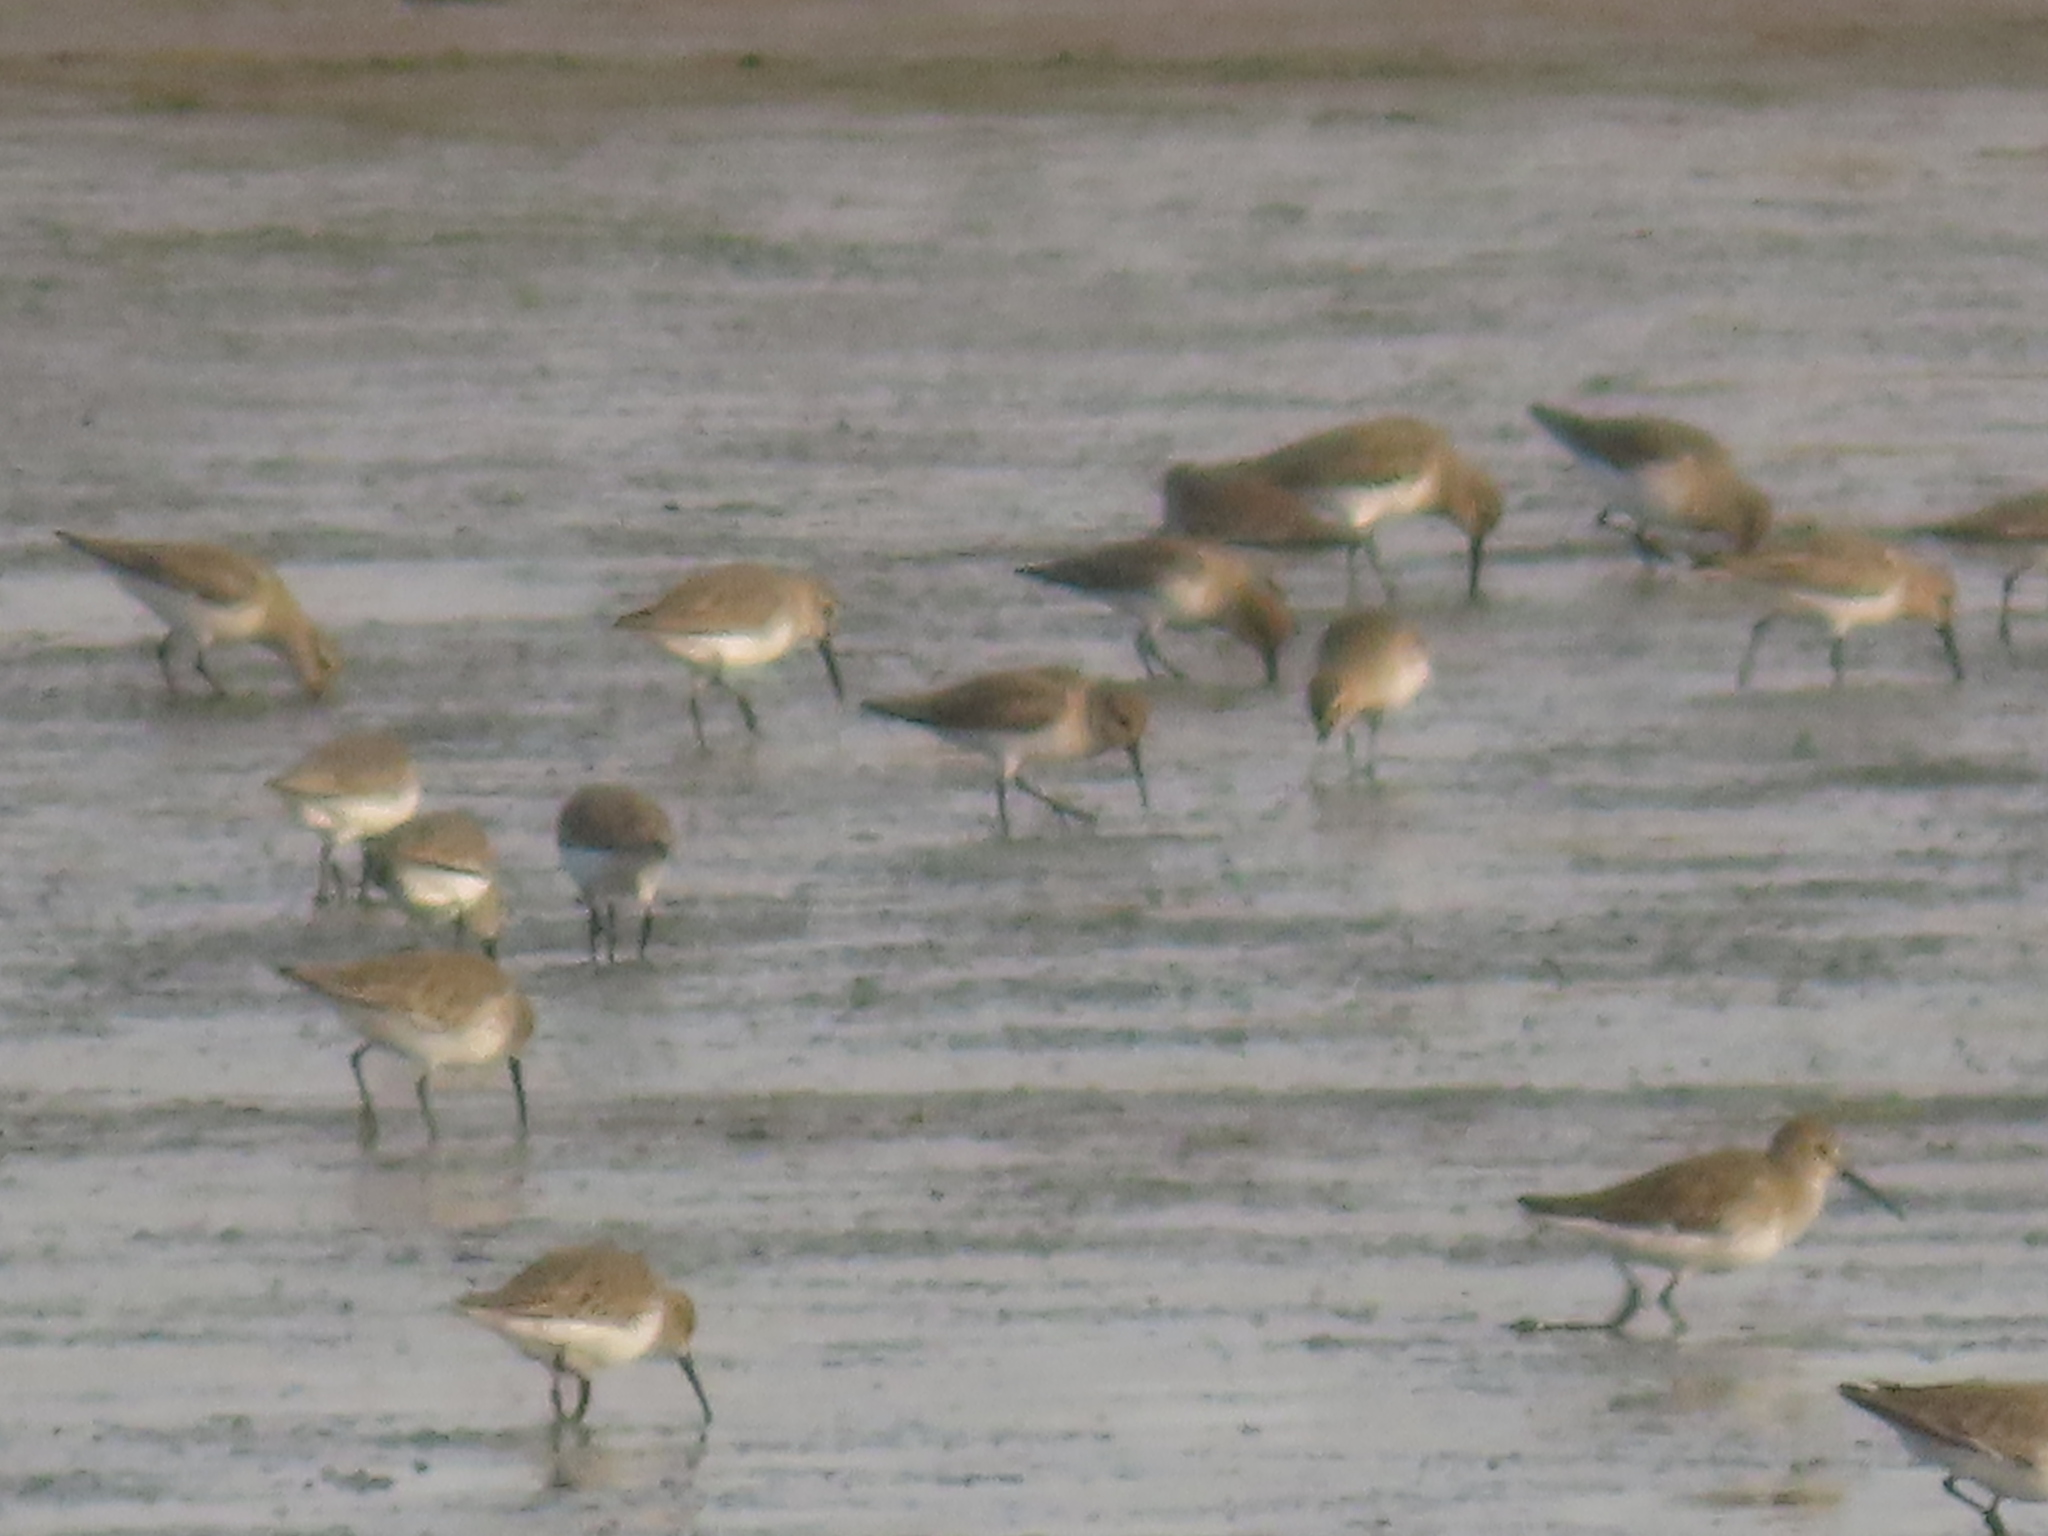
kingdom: Animalia
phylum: Chordata
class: Aves
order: Charadriiformes
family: Scolopacidae
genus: Calidris
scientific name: Calidris alpina
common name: Dunlin
